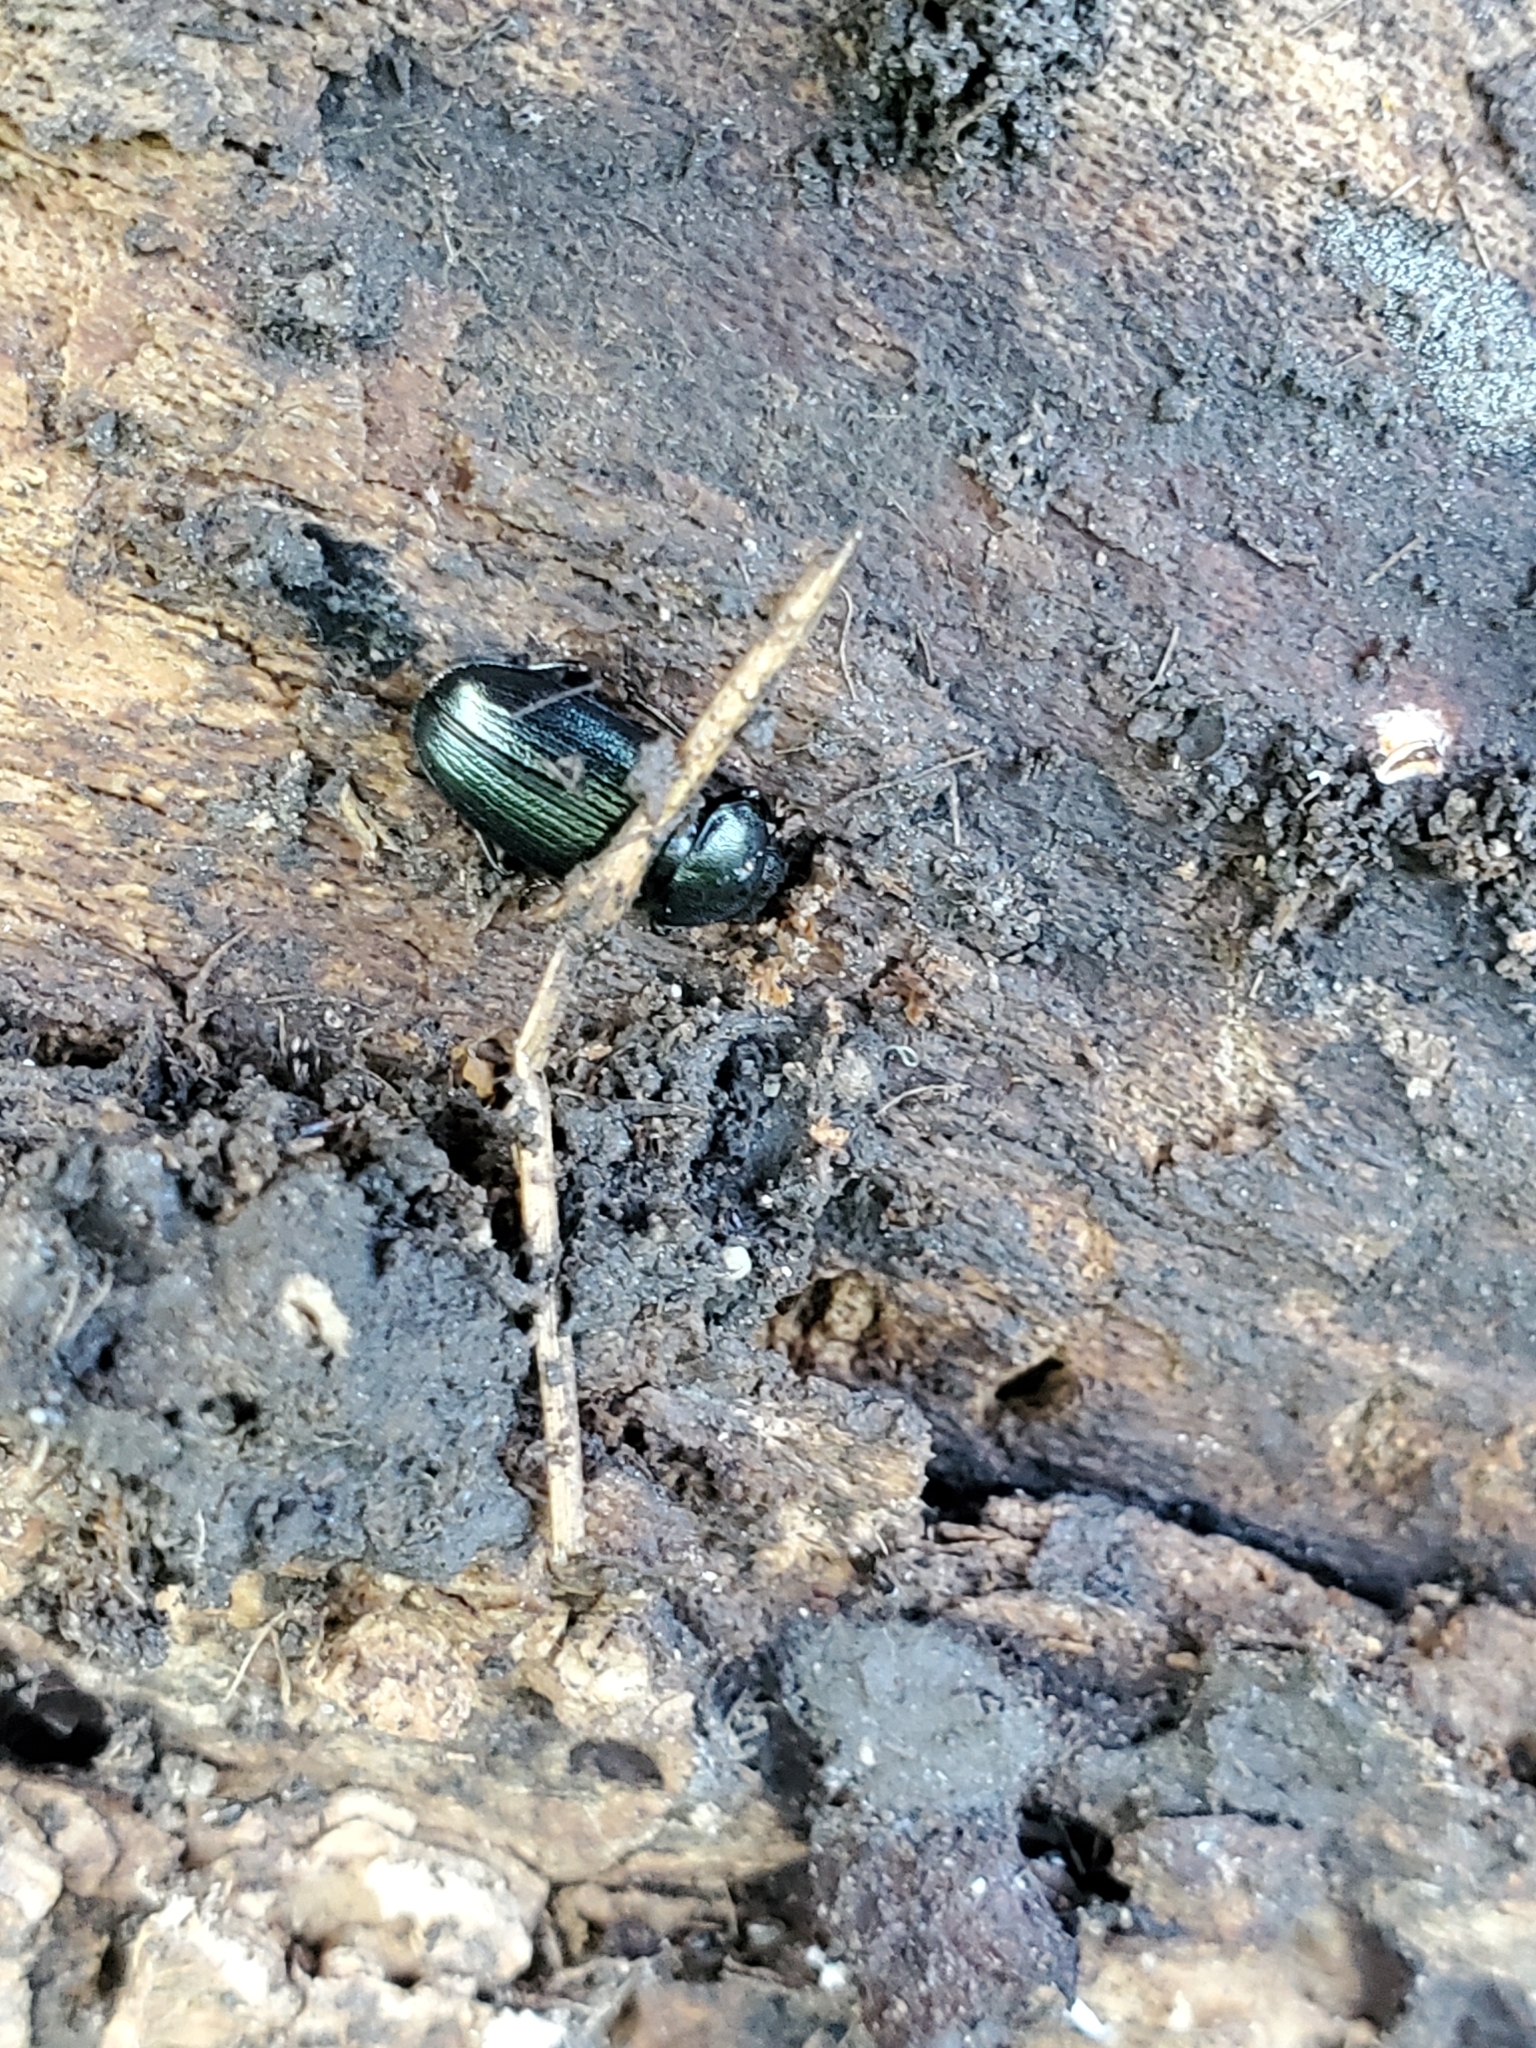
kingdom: Animalia
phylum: Arthropoda
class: Insecta
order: Coleoptera
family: Lucanidae
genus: Platycerus
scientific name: Platycerus quercus
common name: Oak stag beetle
